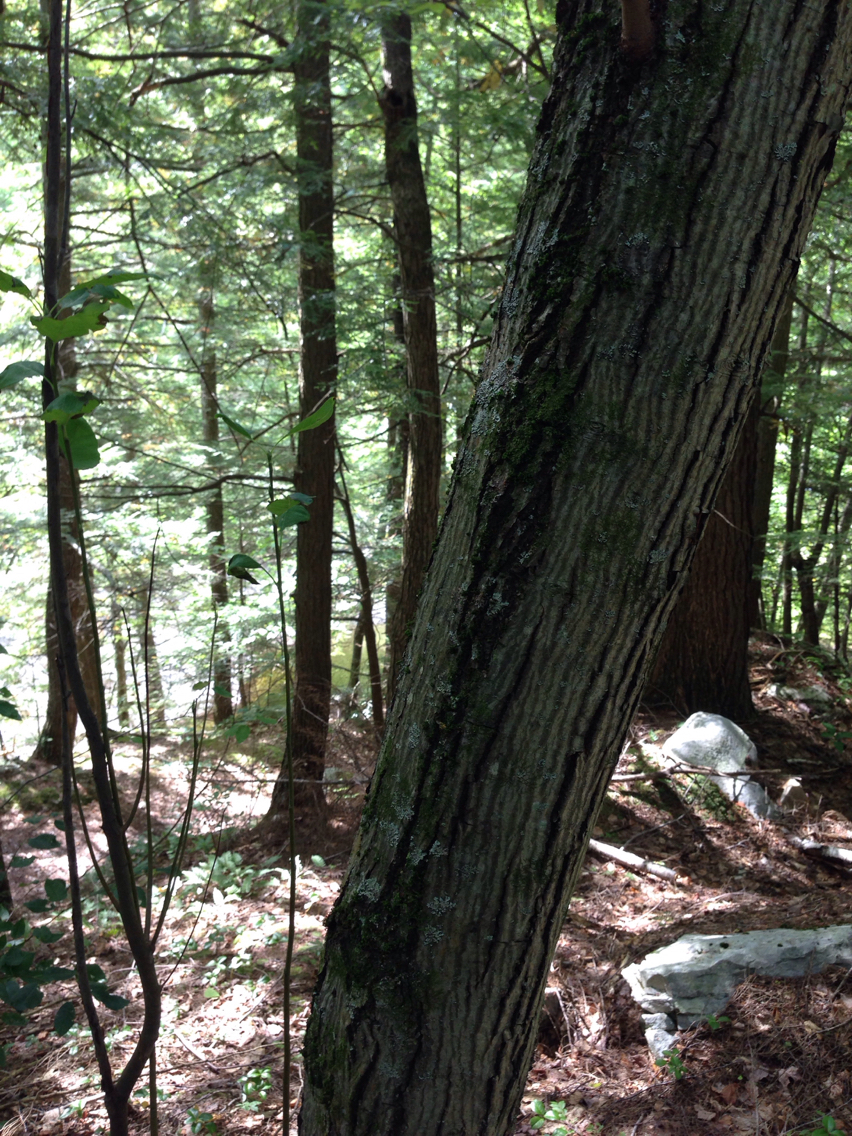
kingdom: Plantae
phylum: Tracheophyta
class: Magnoliopsida
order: Rosales
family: Rosaceae
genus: Amelanchier
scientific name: Amelanchier arborea
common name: Downy serviceberry
